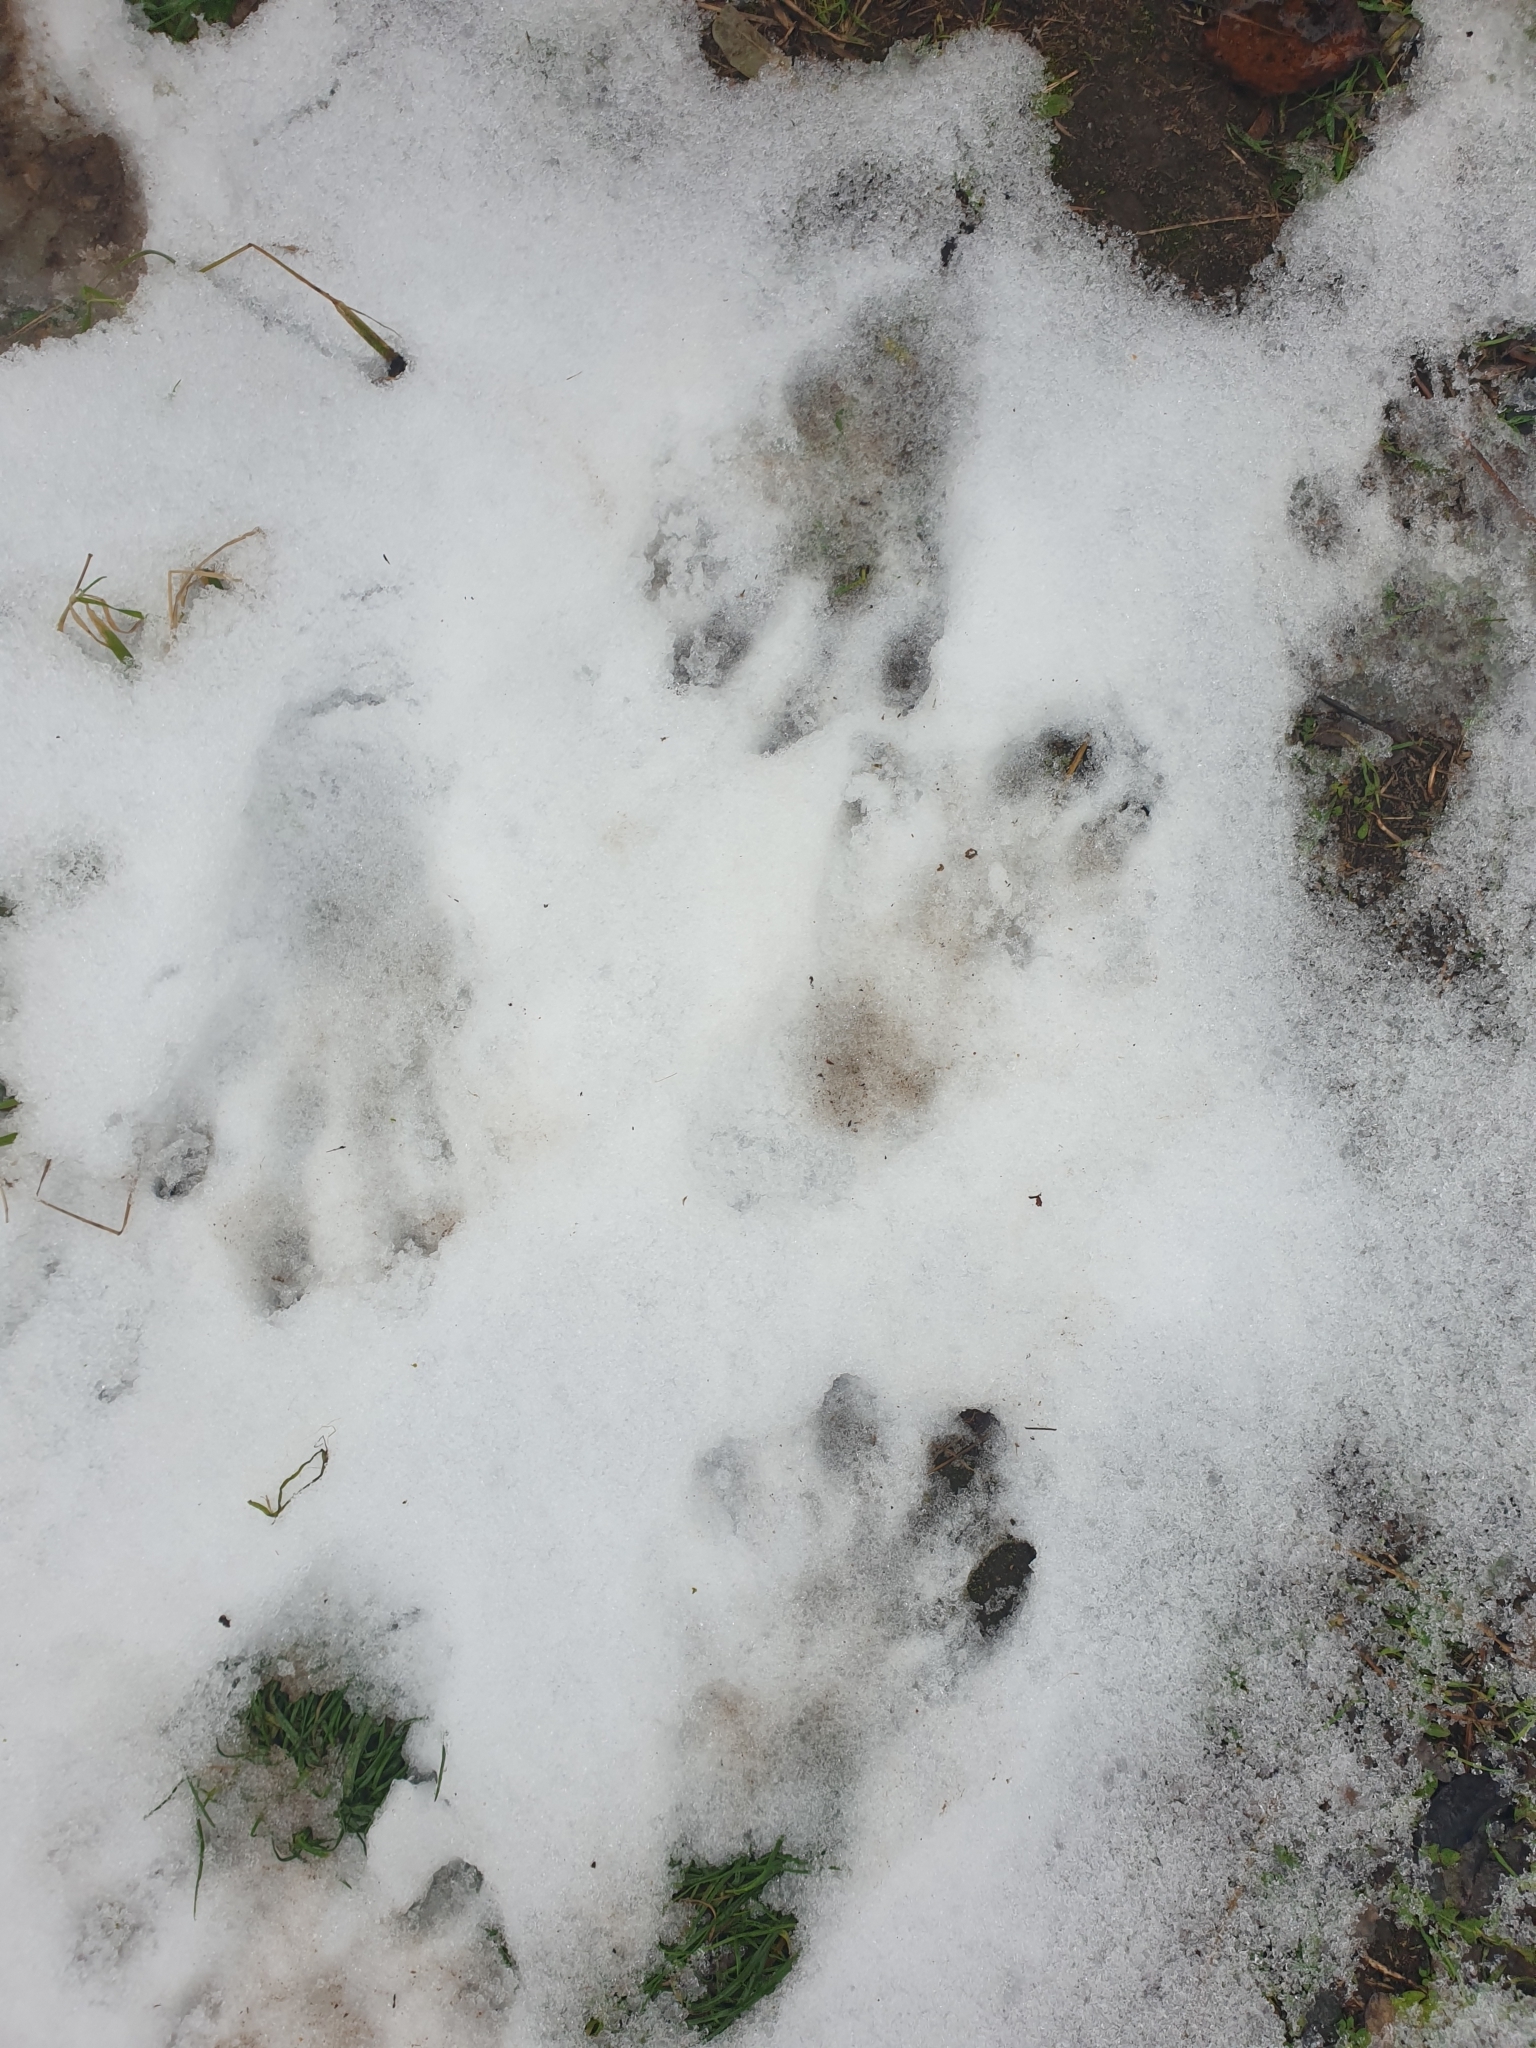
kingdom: Animalia
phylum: Chordata
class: Mammalia
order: Rodentia
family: Castoridae
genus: Castor
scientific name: Castor fiber
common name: Eurasian beaver
